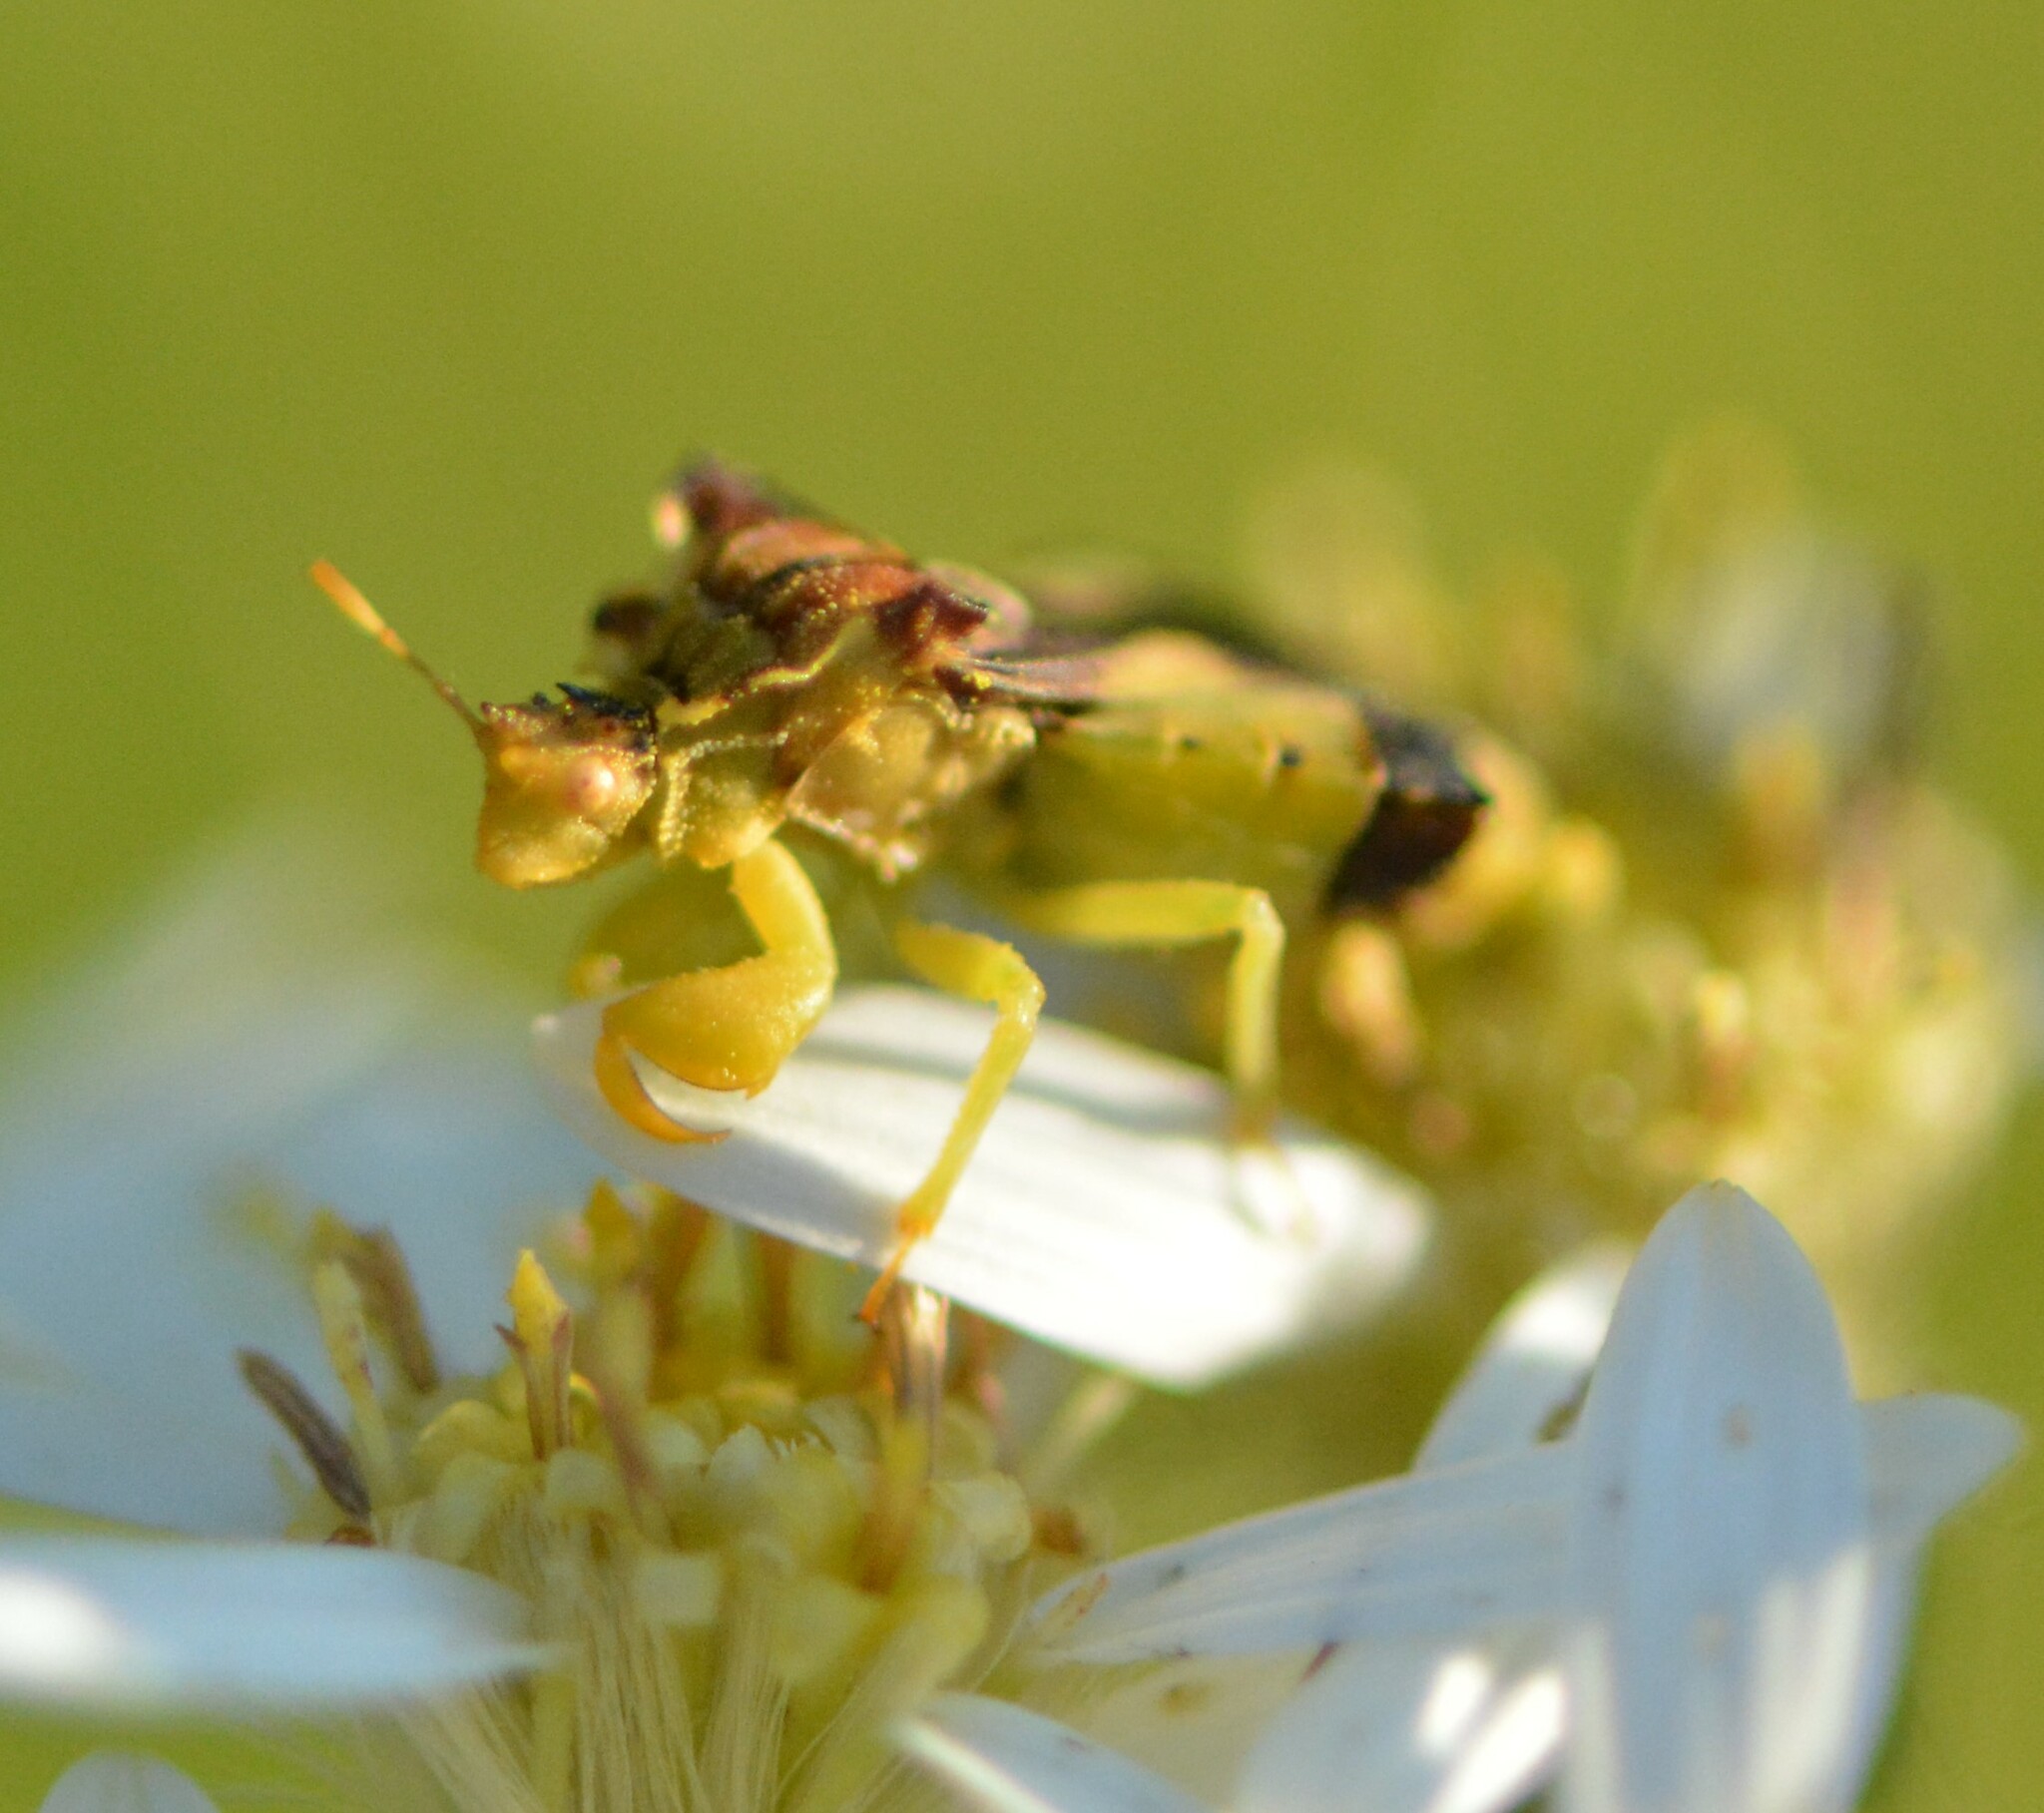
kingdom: Animalia
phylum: Arthropoda
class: Insecta
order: Hemiptera
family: Reduviidae
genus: Phymata
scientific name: Phymata americana
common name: Jagged ambush bug
